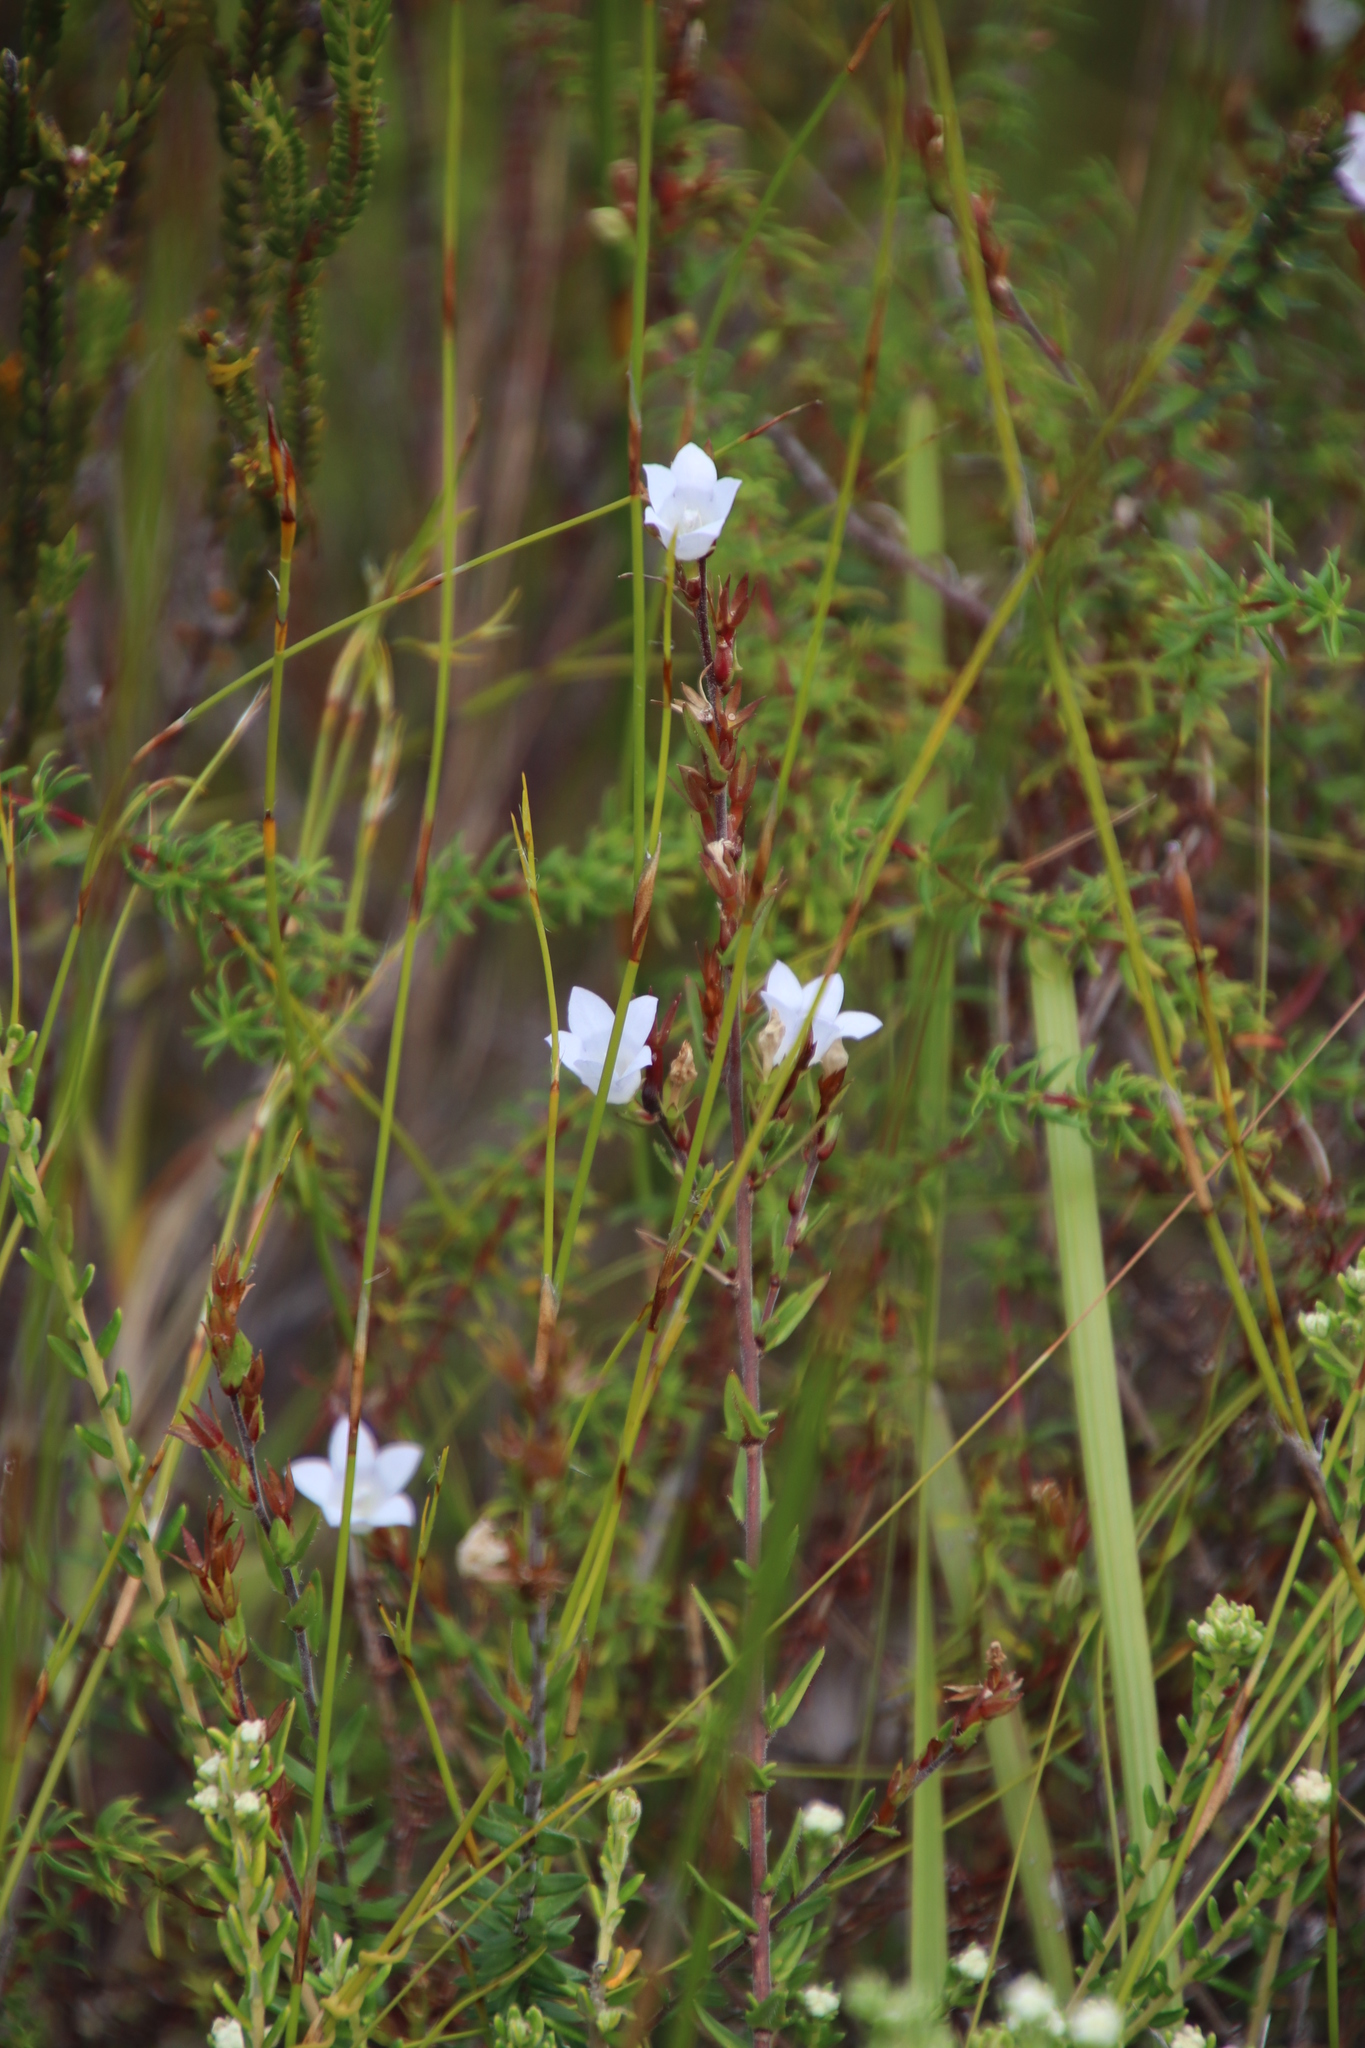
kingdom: Plantae
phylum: Tracheophyta
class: Magnoliopsida
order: Asterales
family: Campanulaceae
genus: Prismatocarpus
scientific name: Prismatocarpus schlechteri
